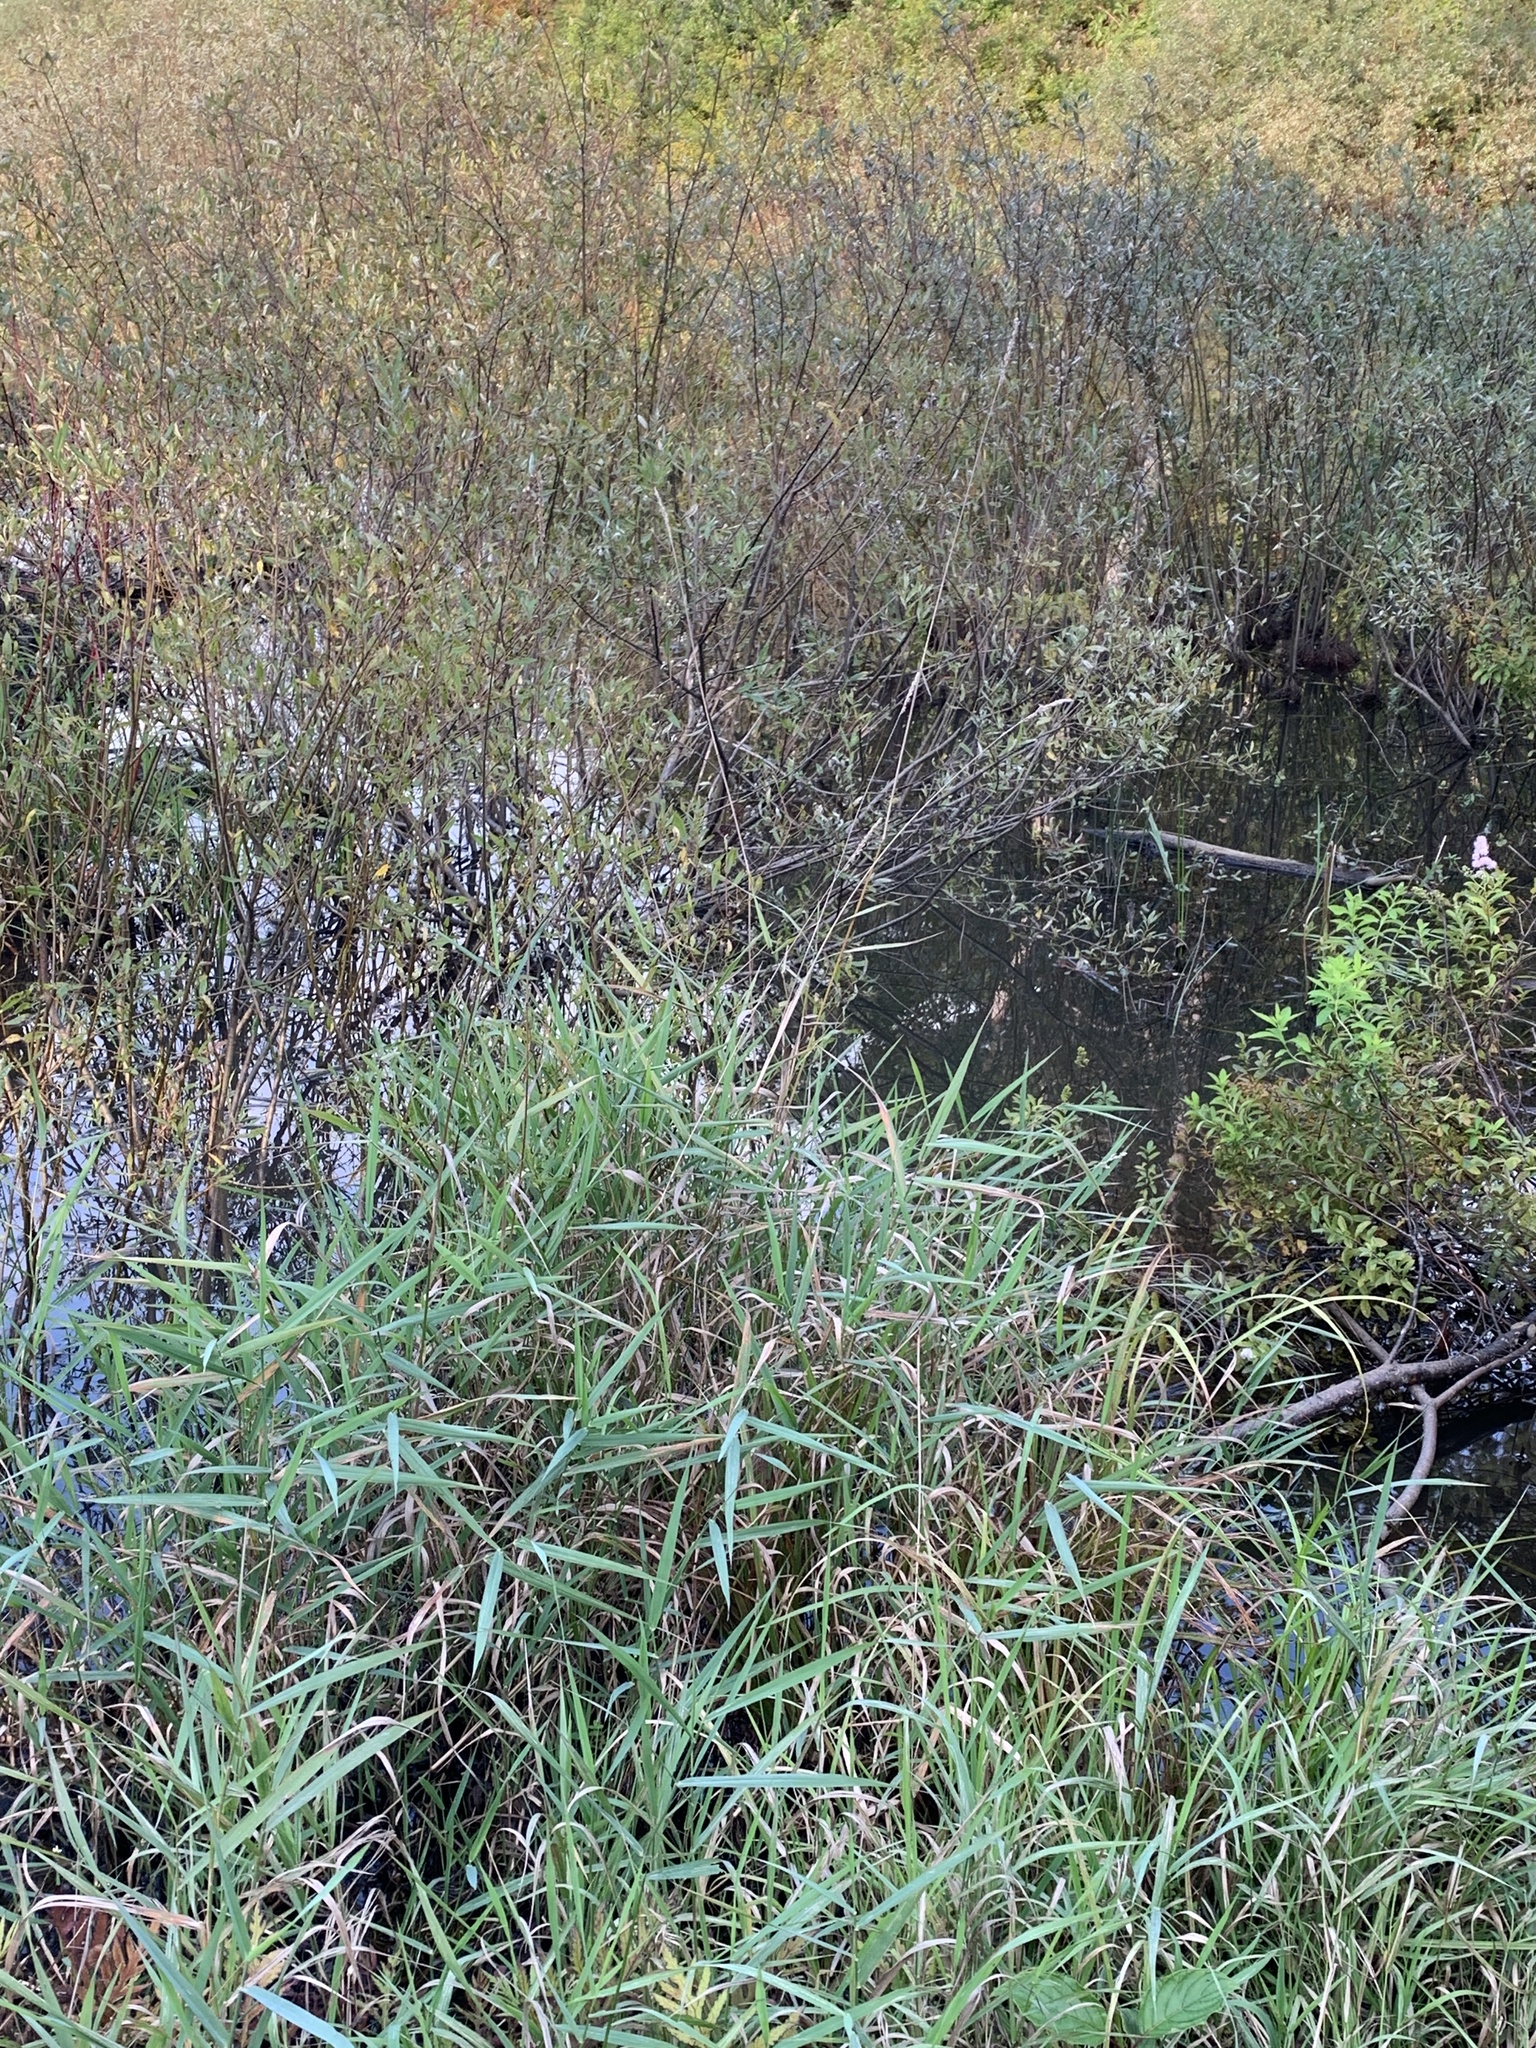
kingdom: Plantae
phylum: Tracheophyta
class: Liliopsida
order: Poales
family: Poaceae
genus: Phalaris
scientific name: Phalaris arundinacea
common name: Reed canary-grass
